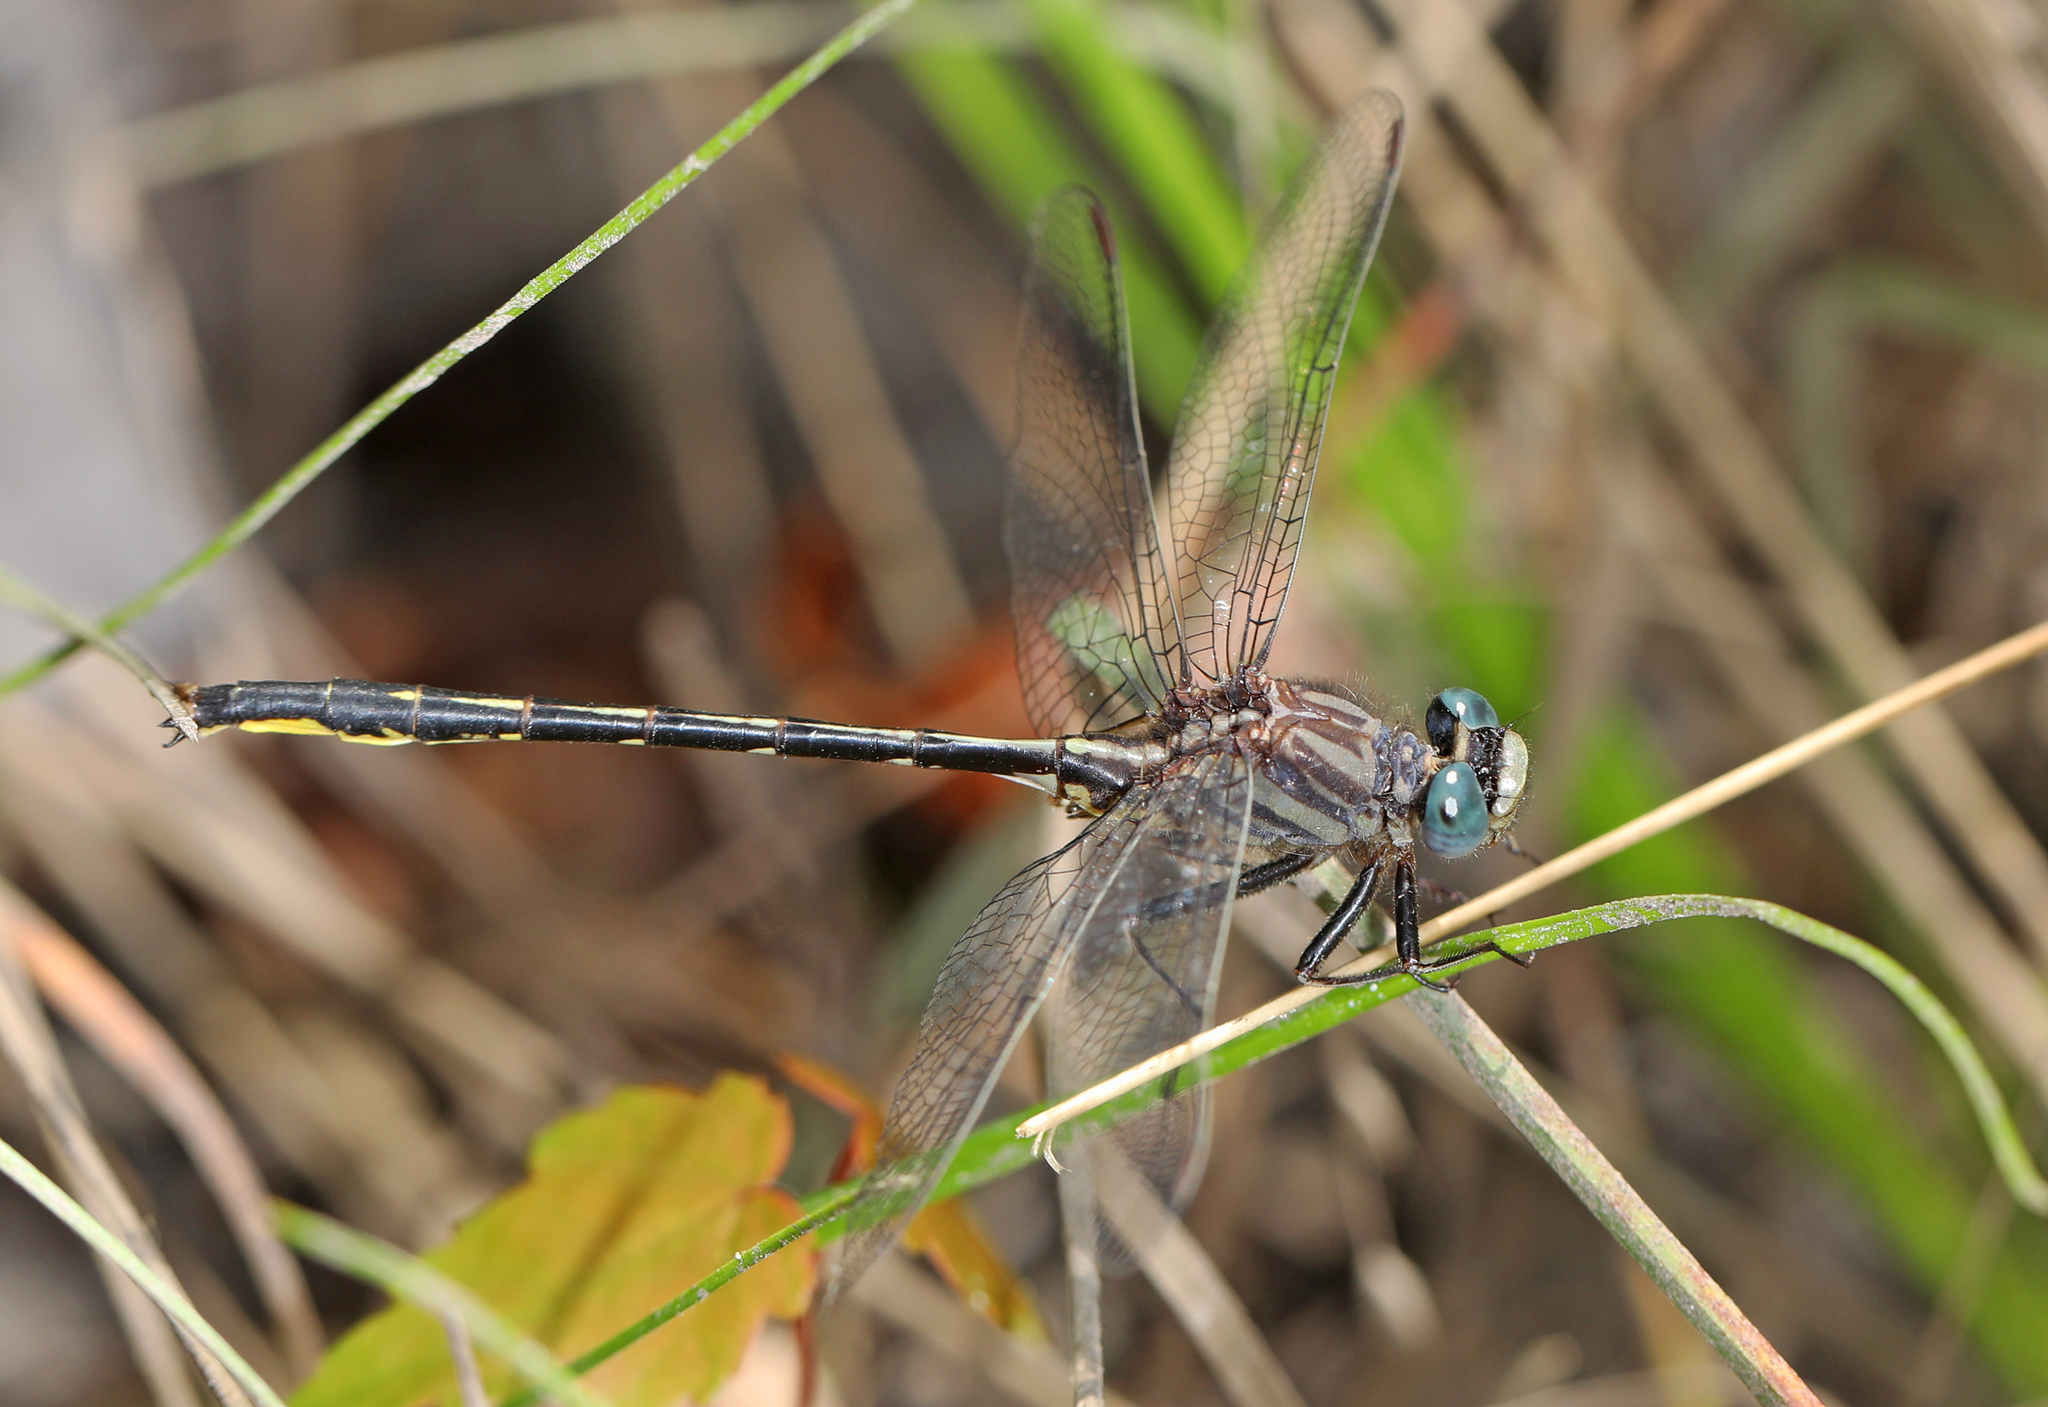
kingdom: Animalia
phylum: Arthropoda
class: Insecta
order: Odonata
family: Gomphidae
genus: Phanogomphus
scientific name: Phanogomphus westfalli
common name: Westfall’s clubtail
